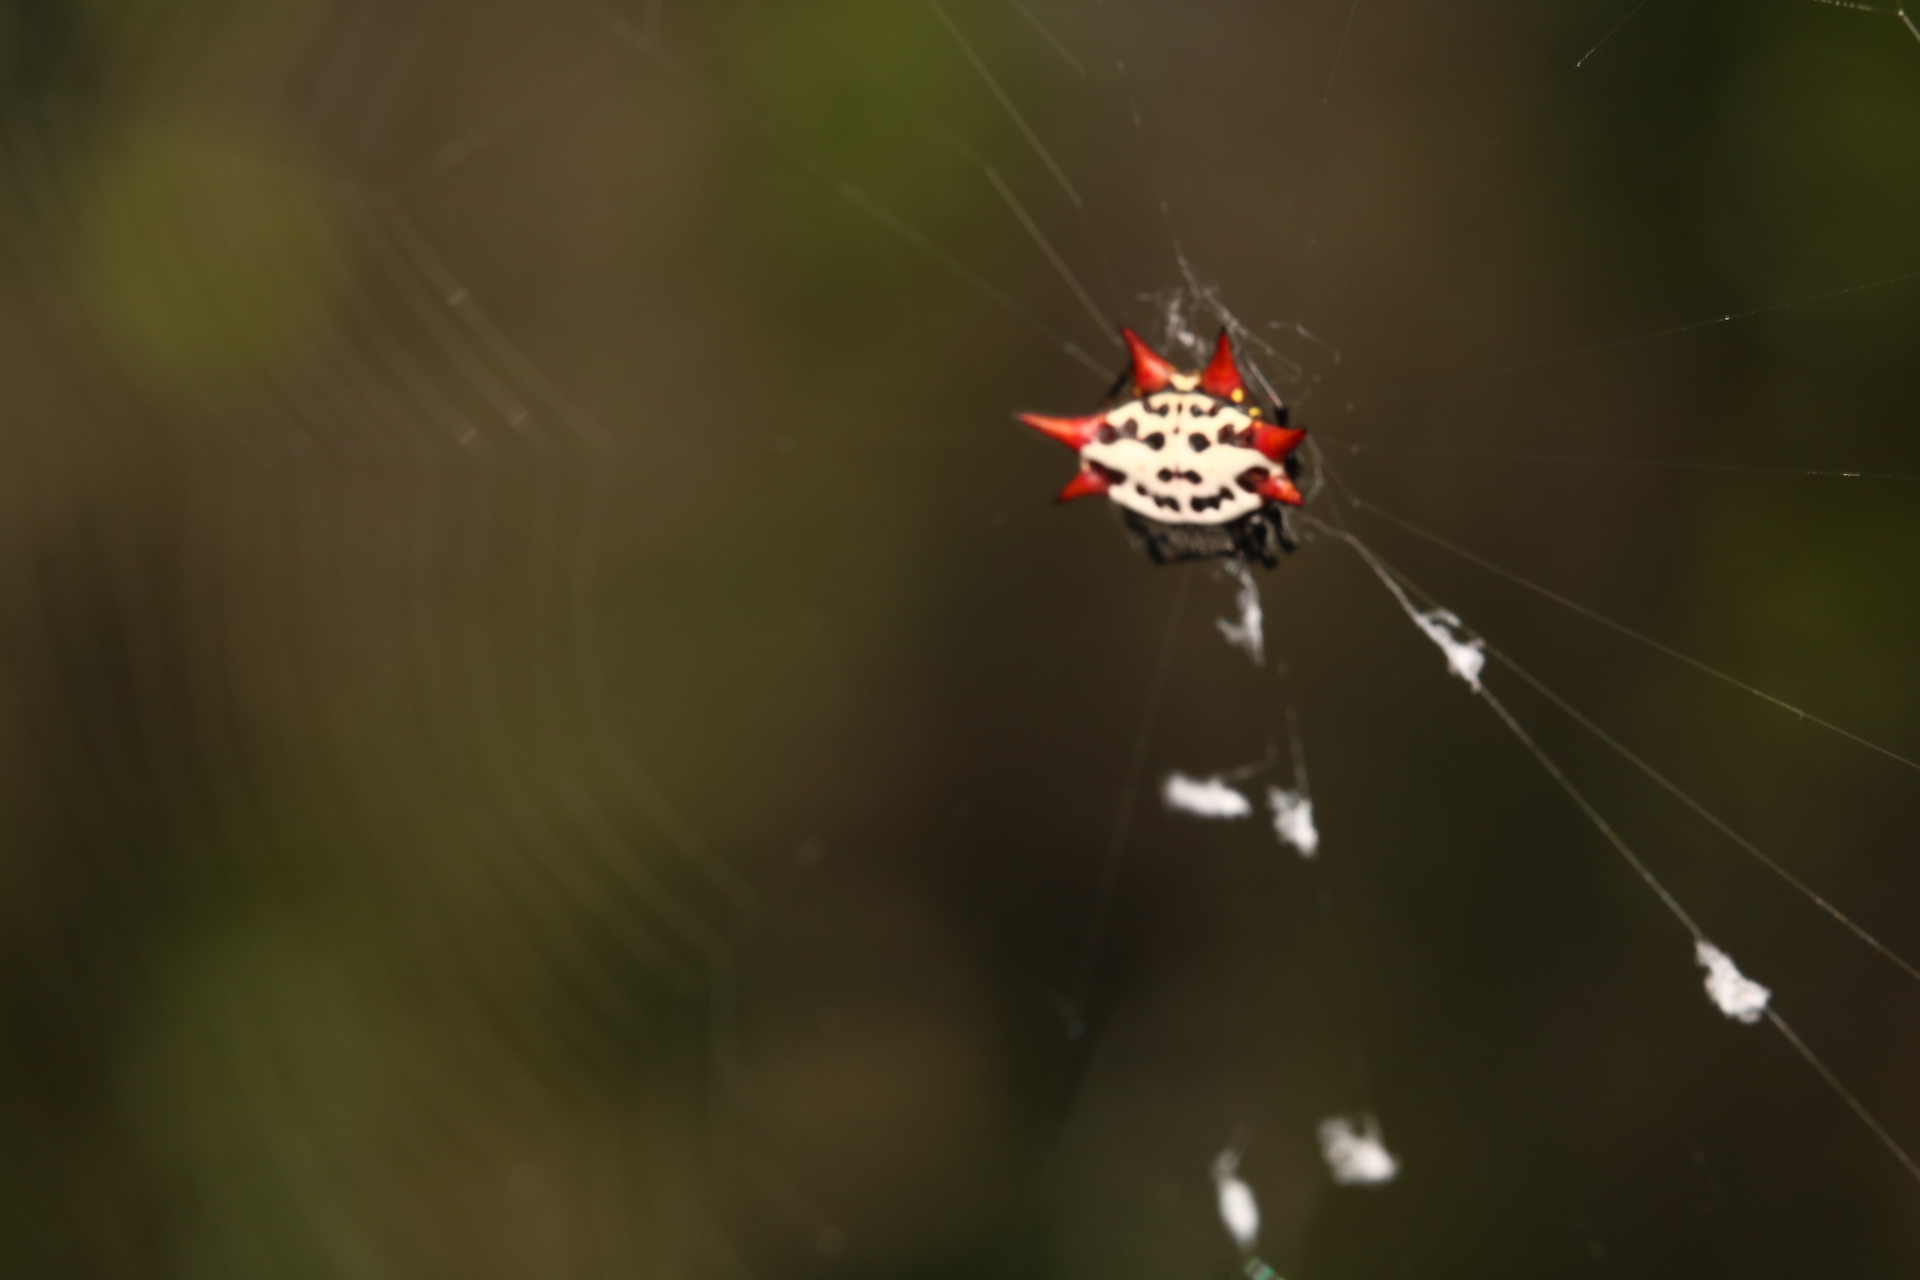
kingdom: Animalia
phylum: Arthropoda
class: Arachnida
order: Araneae
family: Araneidae
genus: Gasteracantha
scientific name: Gasteracantha cancriformis
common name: Orb weavers
